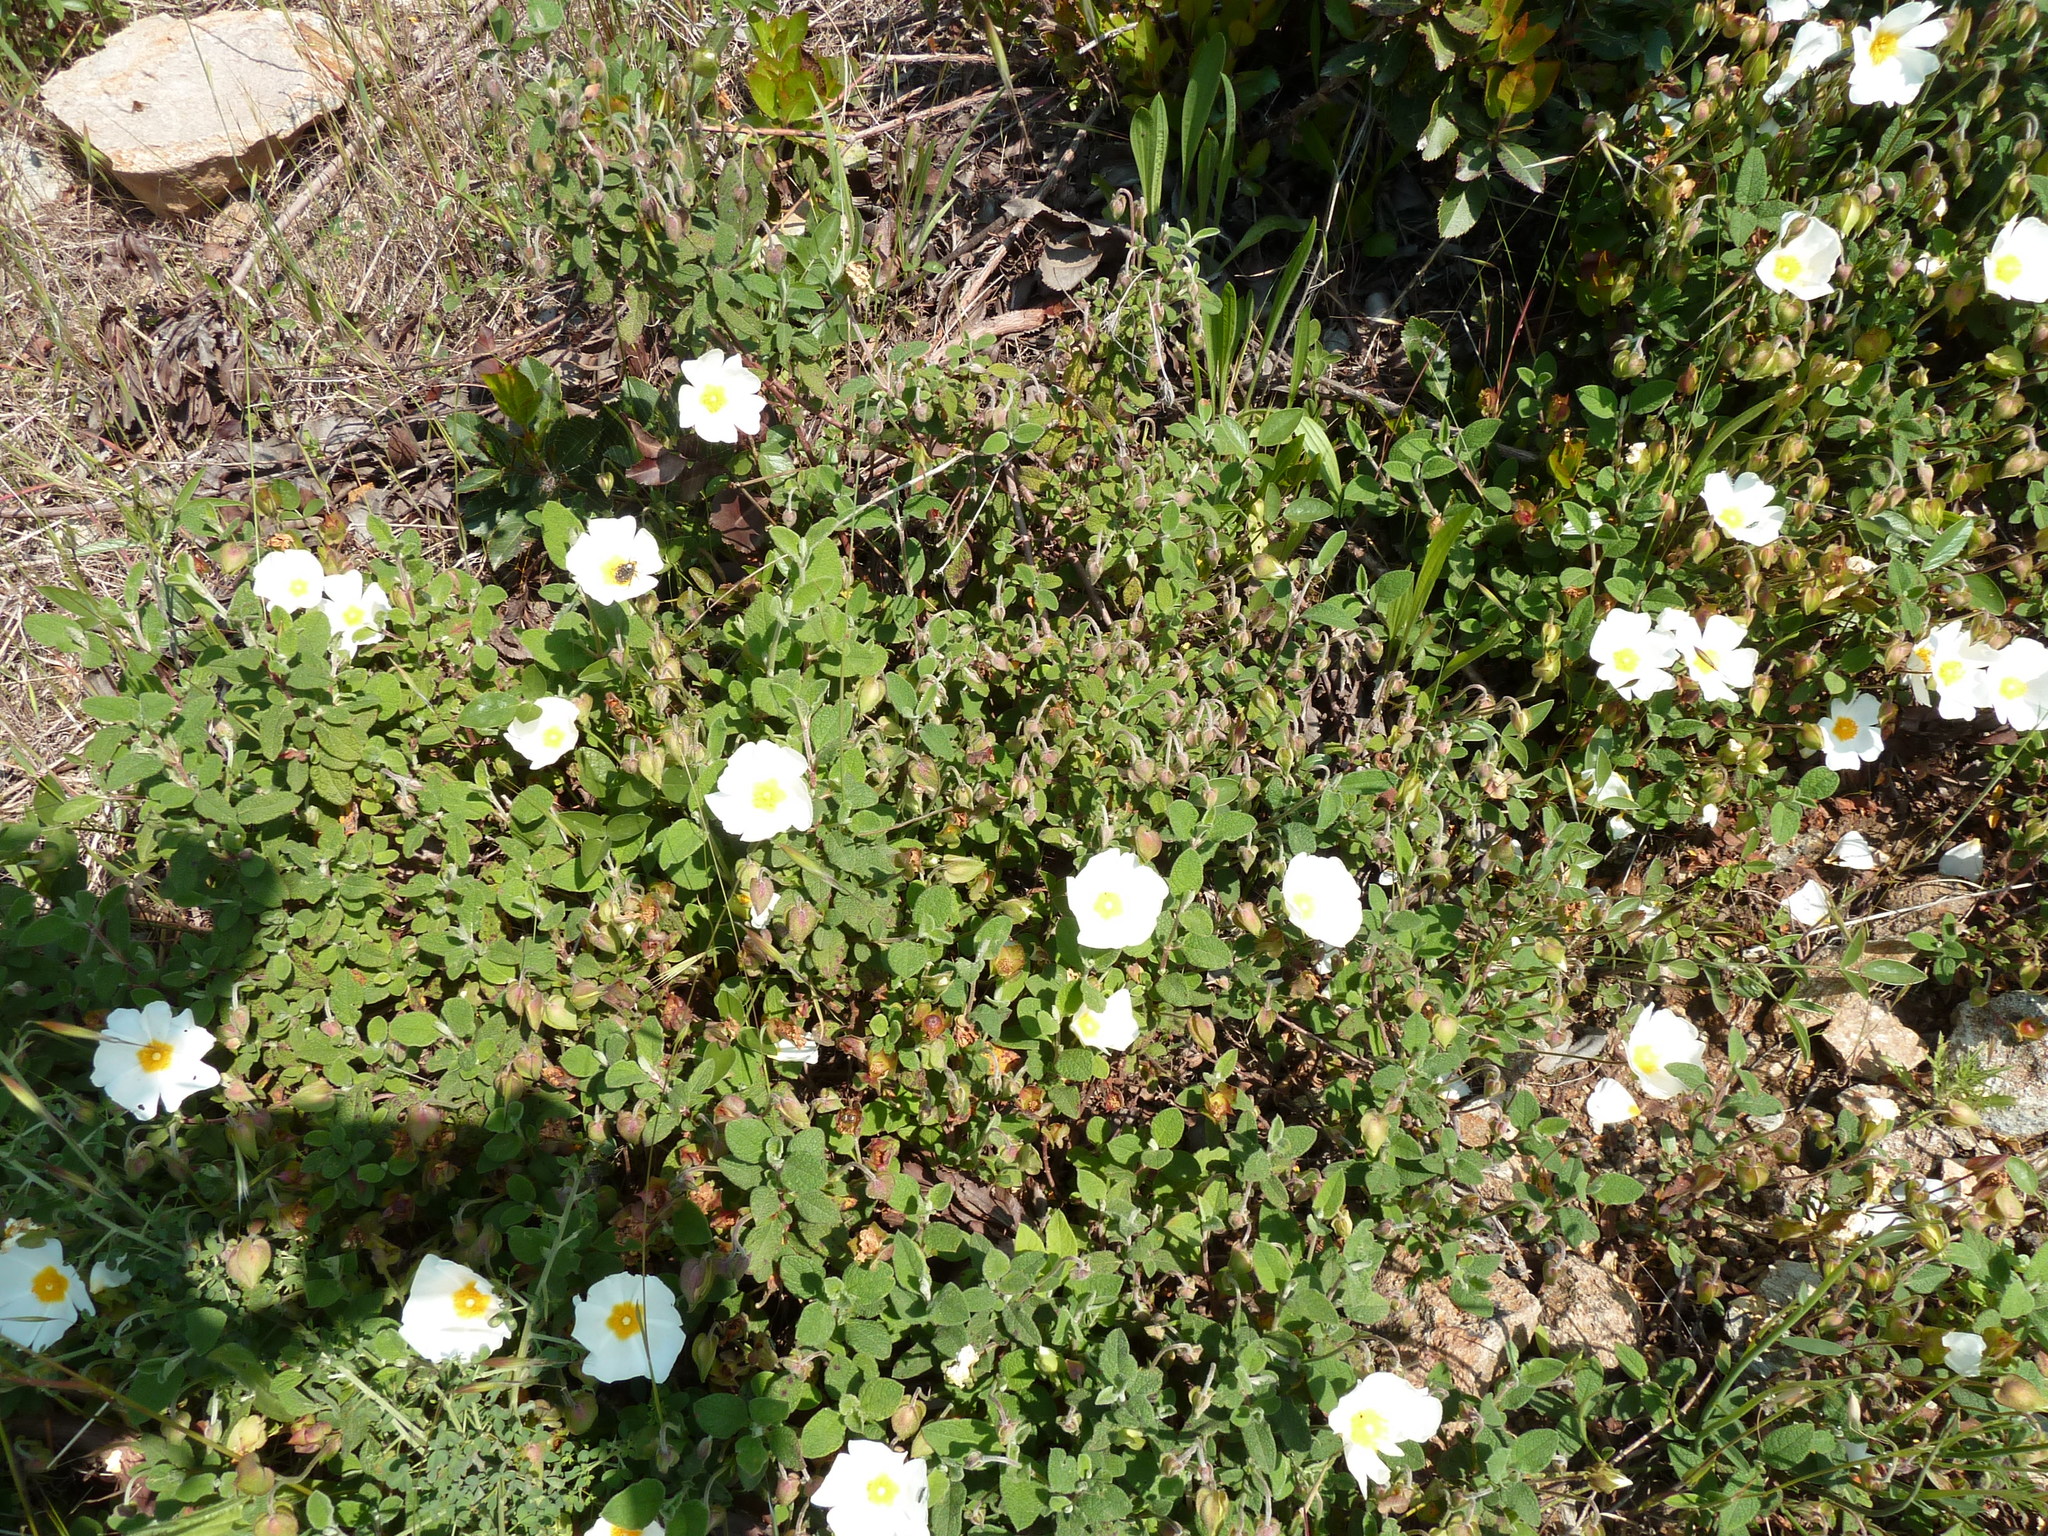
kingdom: Plantae
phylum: Tracheophyta
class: Magnoliopsida
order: Malvales
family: Cistaceae
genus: Cistus
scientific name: Cistus salviifolius
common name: Salvia cistus
